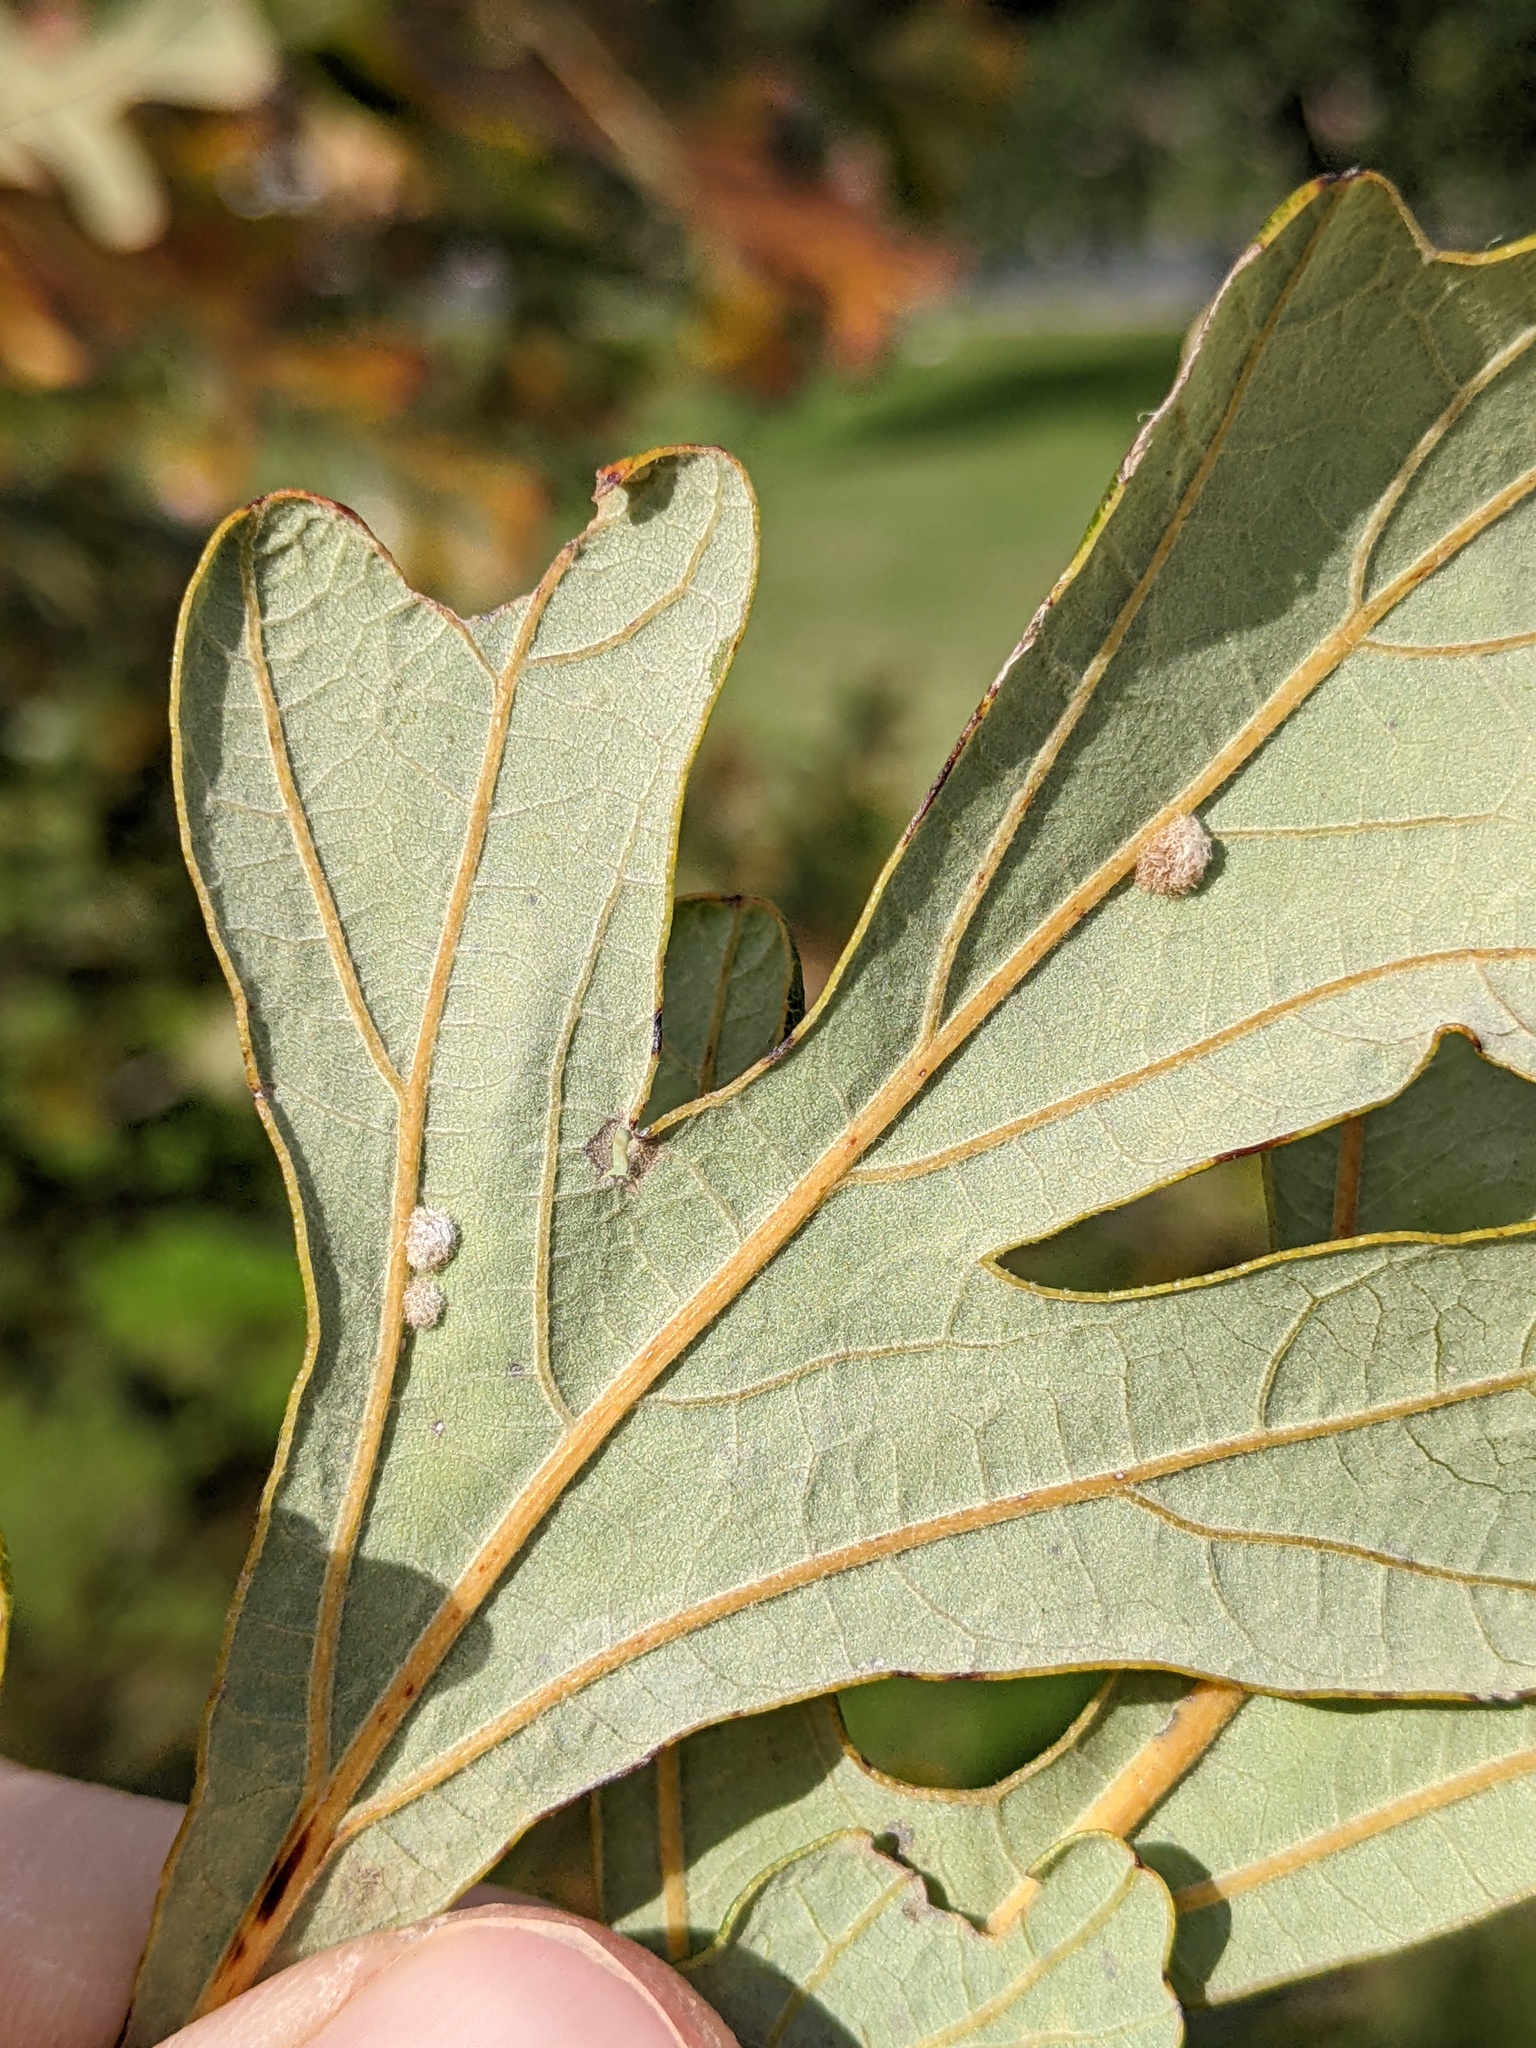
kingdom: Animalia
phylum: Arthropoda
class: Insecta
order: Hymenoptera
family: Cynipidae
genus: Neuroterus
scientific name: Neuroterus quercusverrucarum
